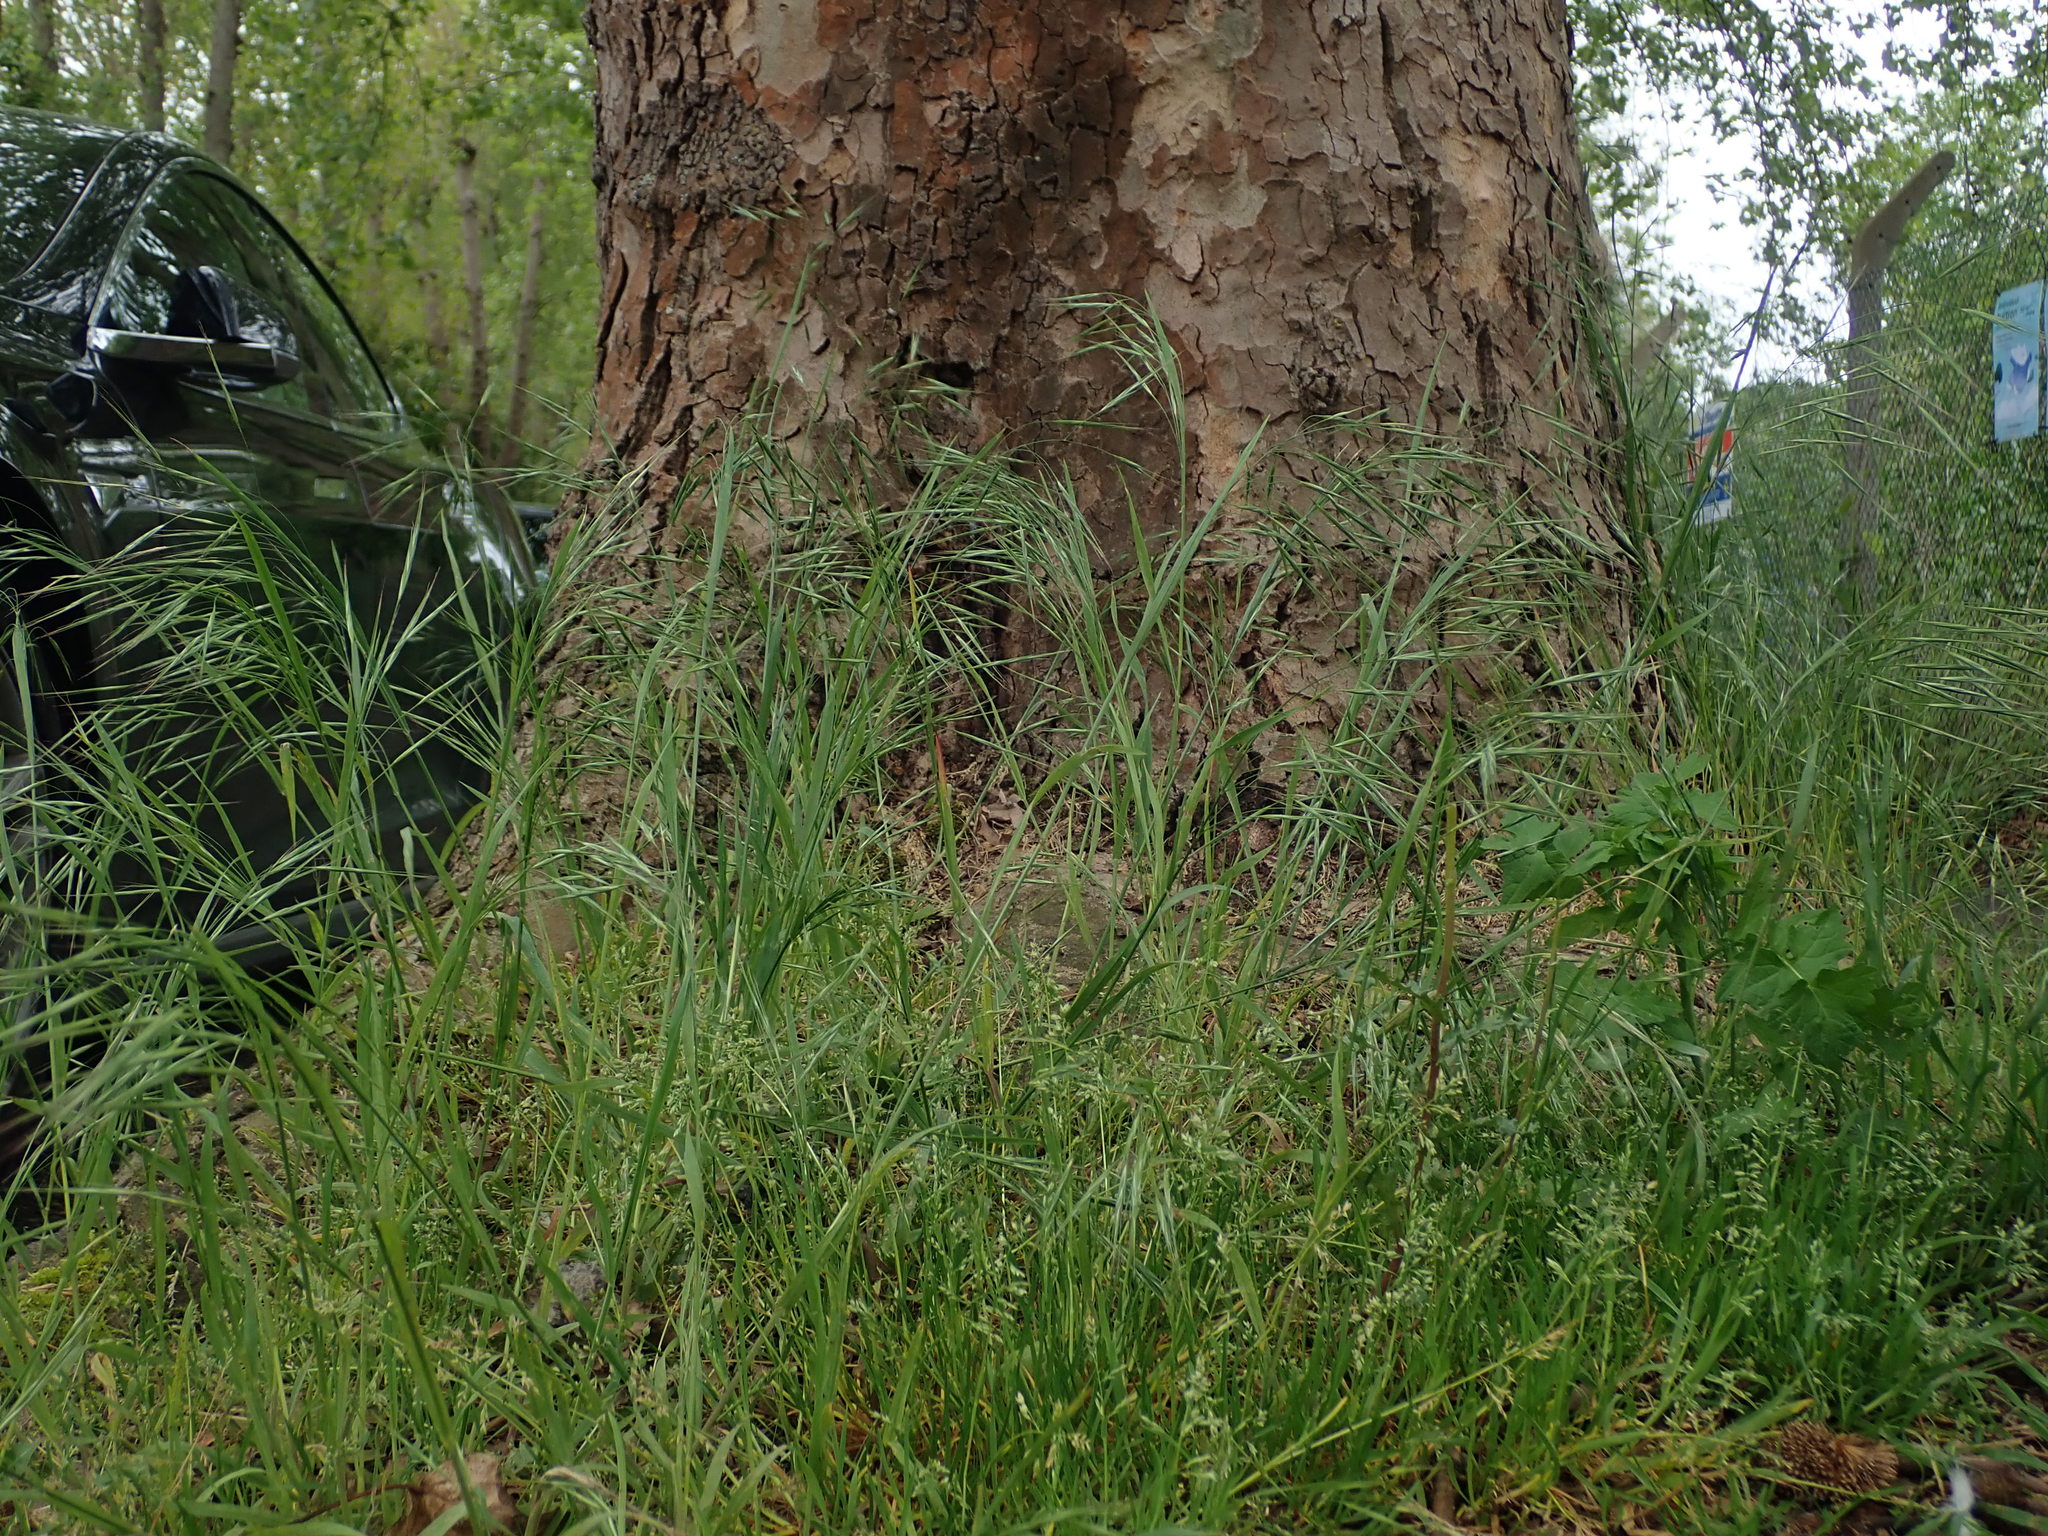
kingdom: Plantae
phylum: Tracheophyta
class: Liliopsida
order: Poales
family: Poaceae
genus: Bromus
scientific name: Bromus sterilis
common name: Poverty brome
